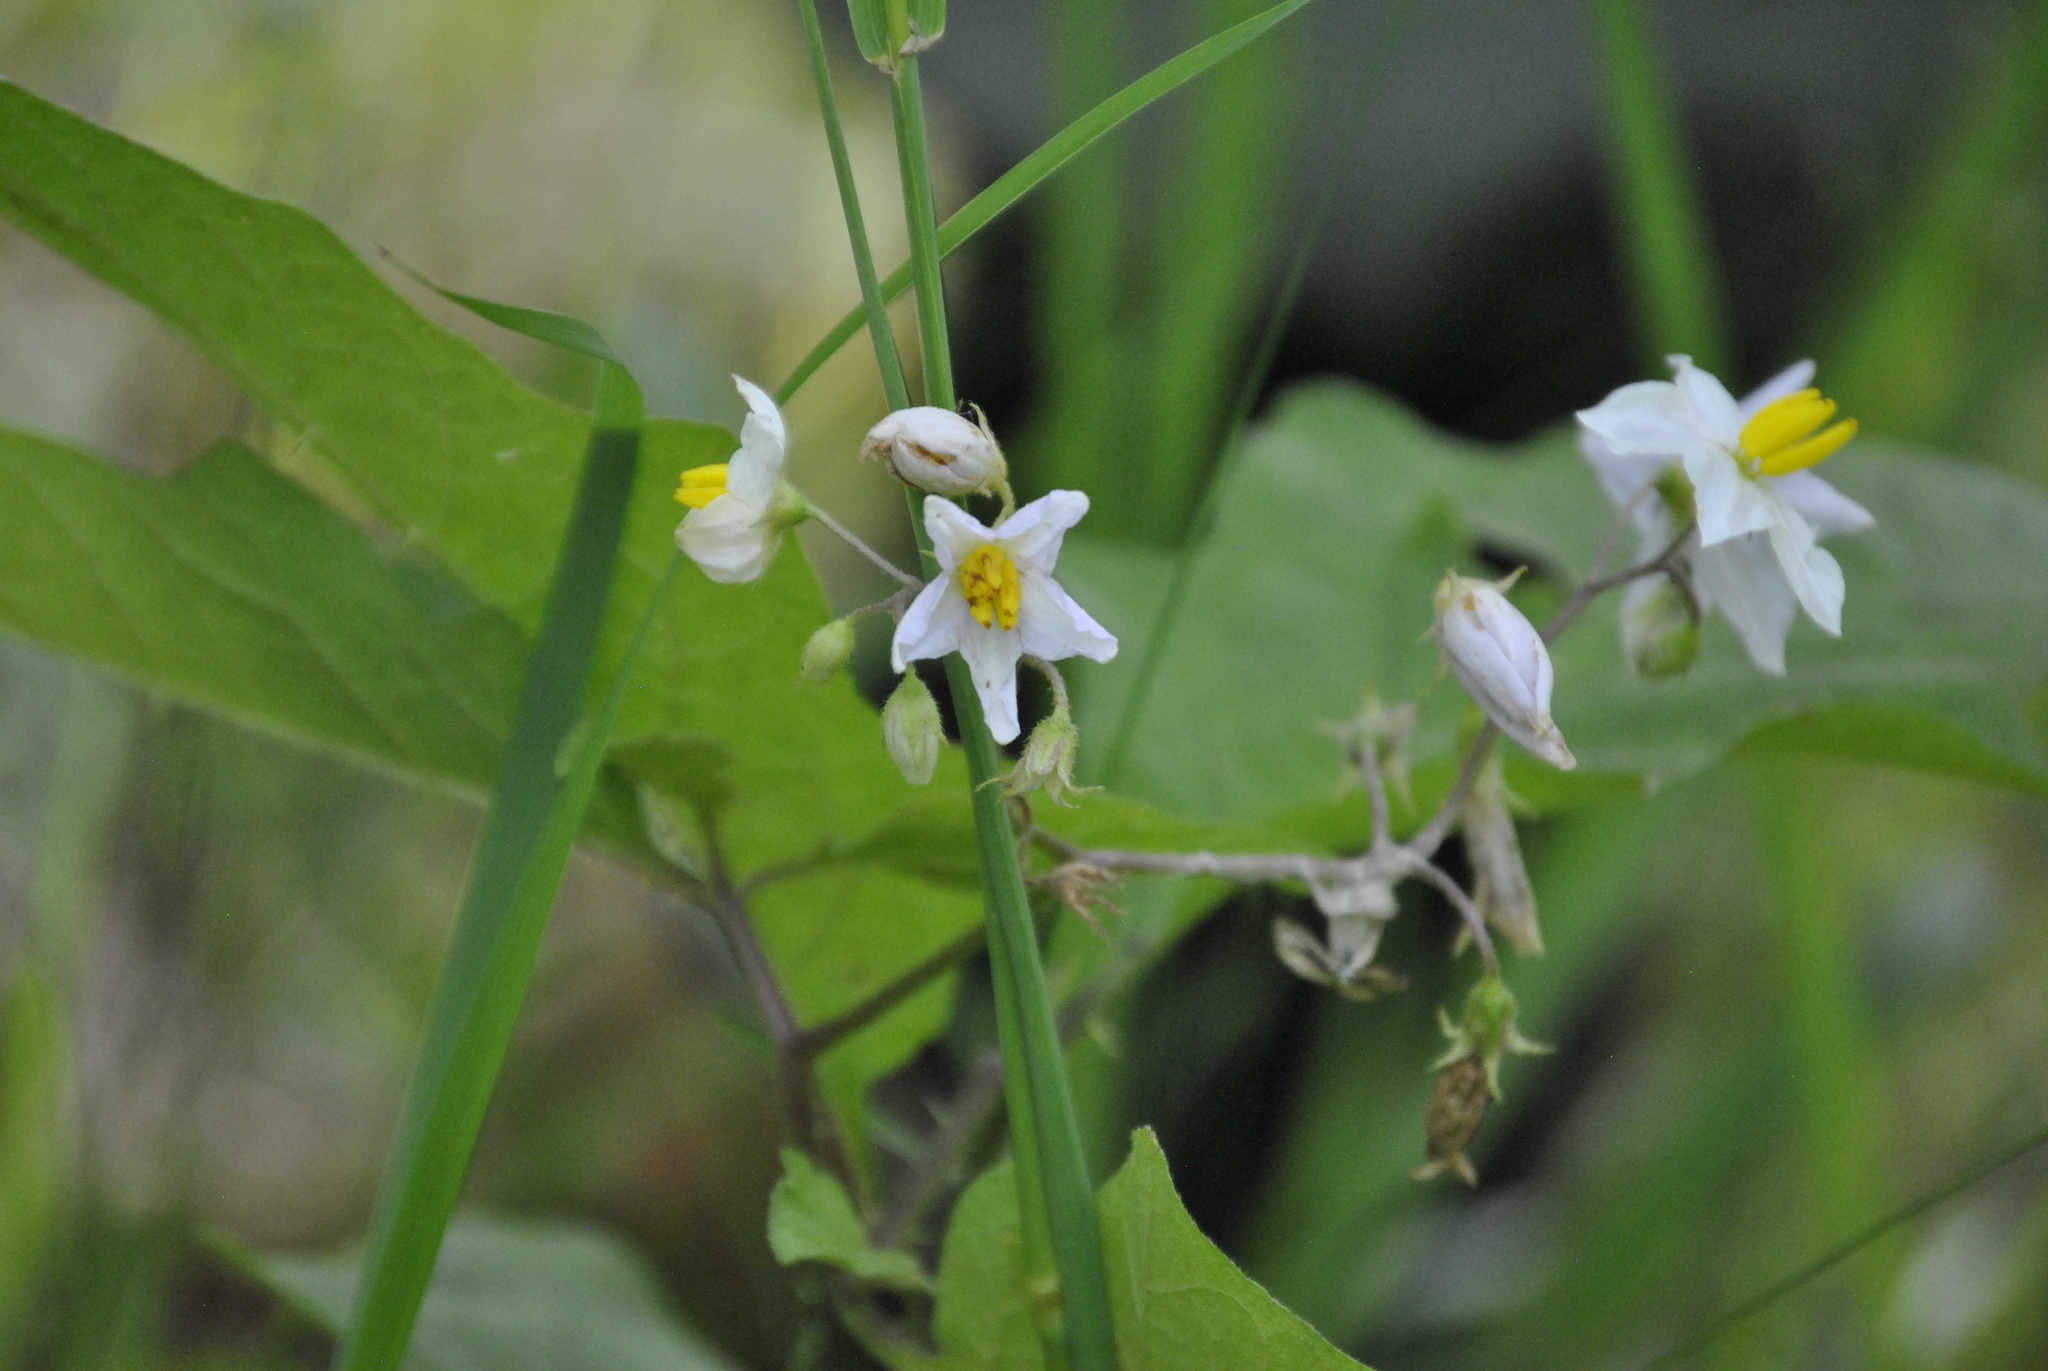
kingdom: Plantae
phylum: Tracheophyta
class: Magnoliopsida
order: Solanales
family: Solanaceae
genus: Solanum
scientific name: Solanum carolinense
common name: Horse-nettle
